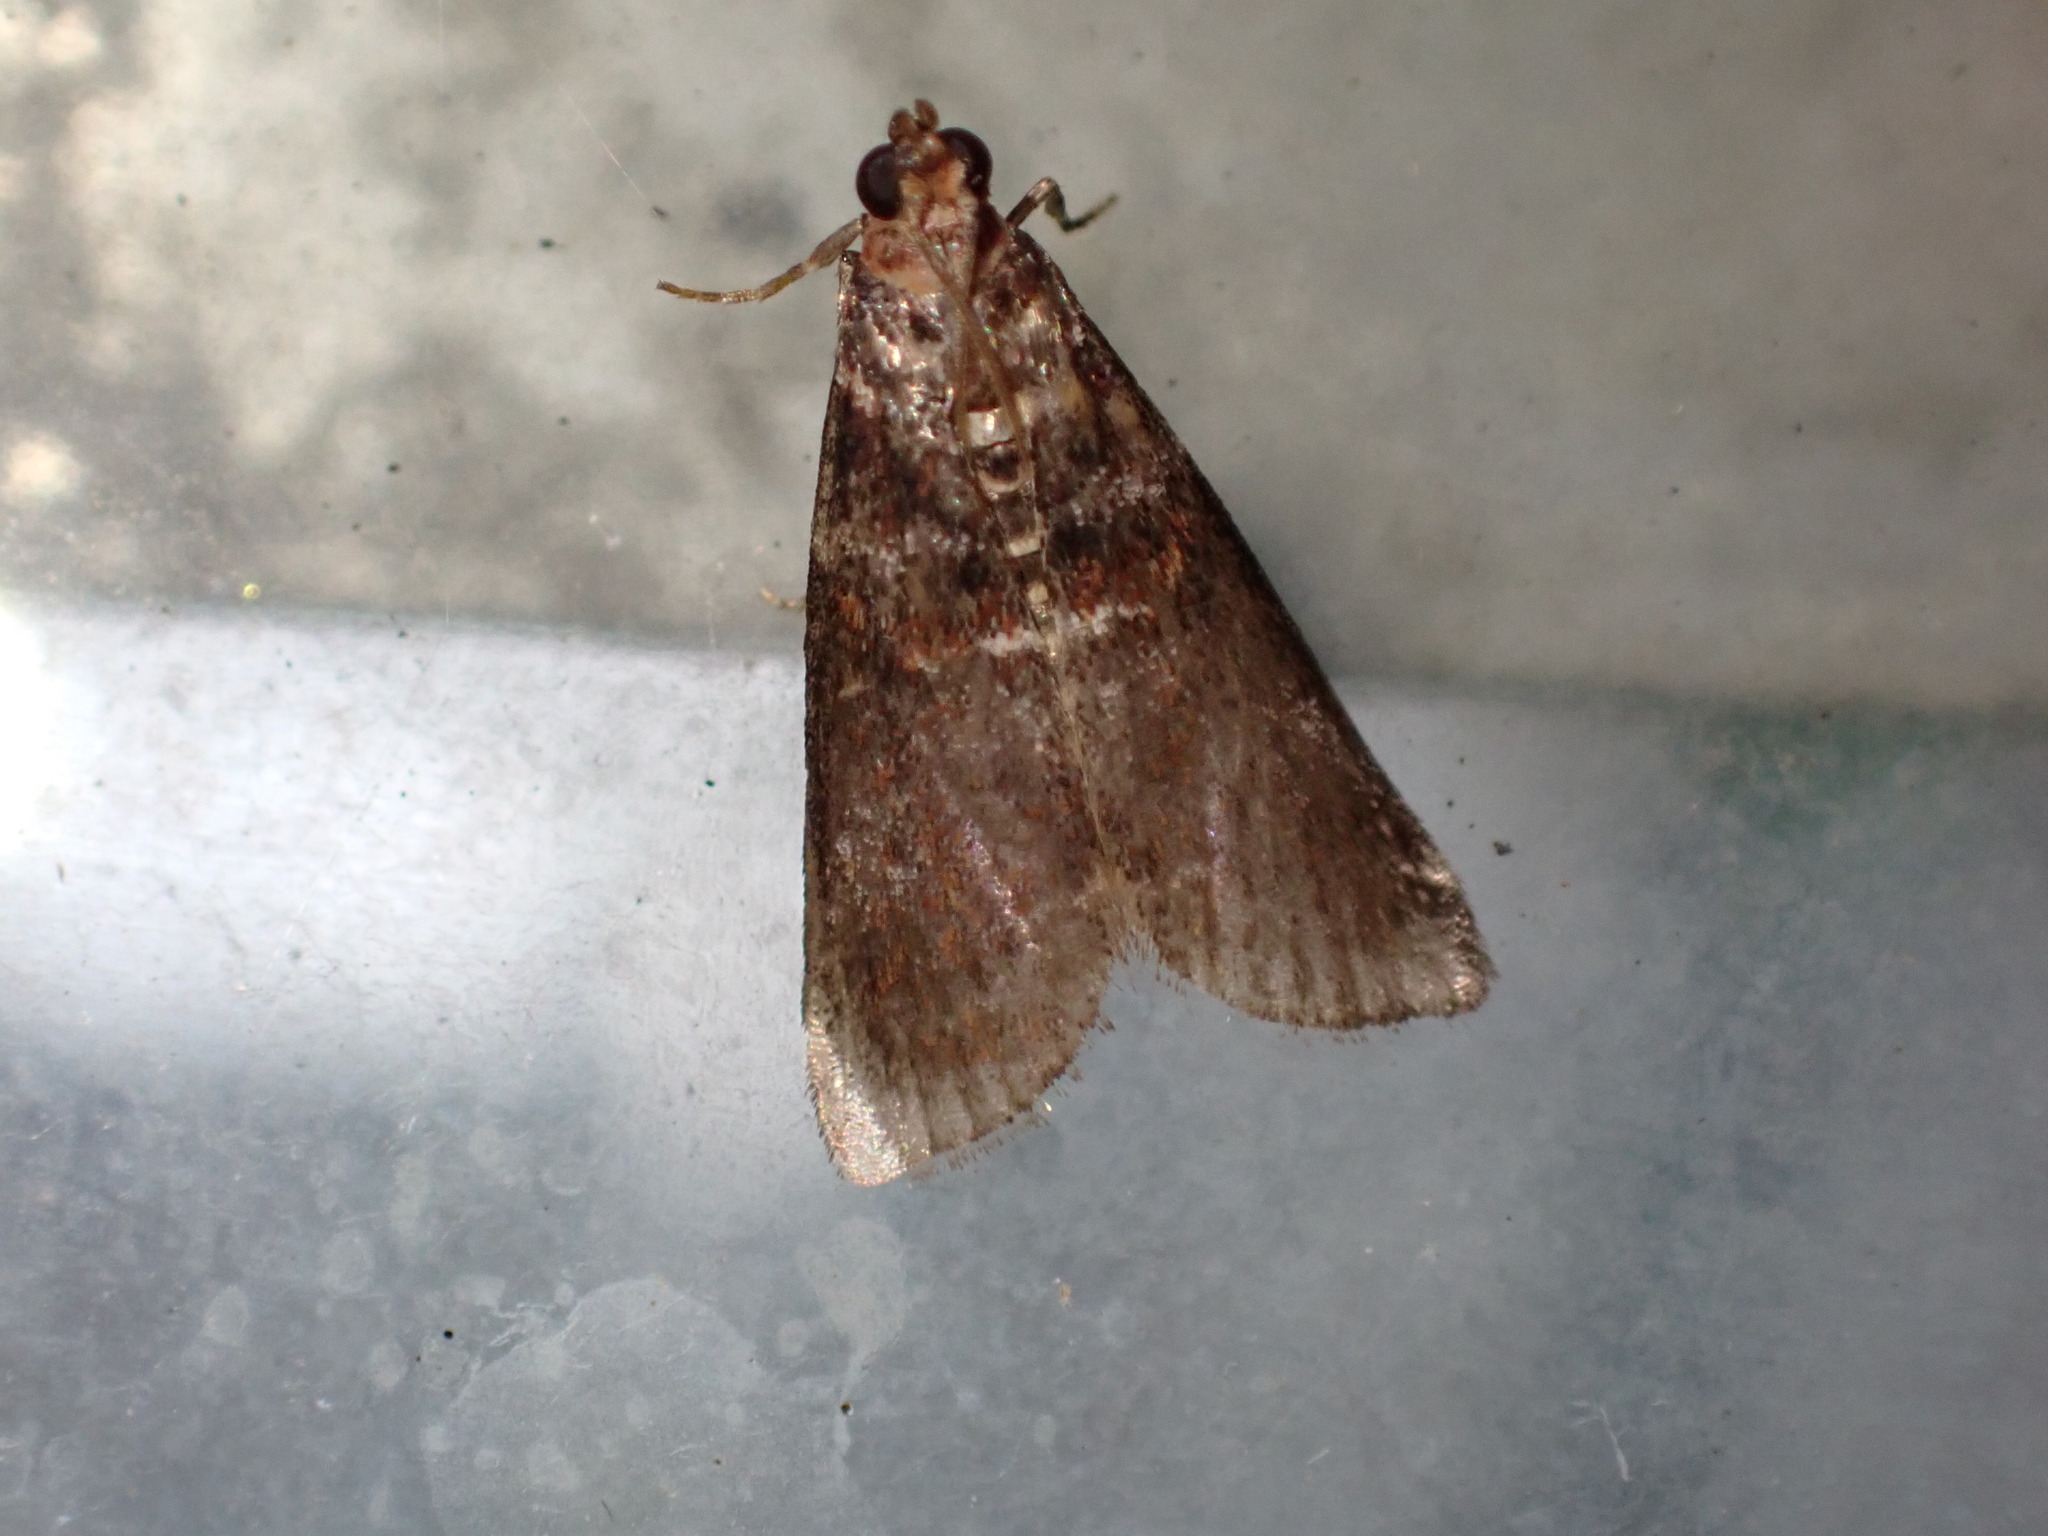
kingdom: Animalia
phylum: Arthropoda
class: Insecta
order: Lepidoptera
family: Pyralidae
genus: Acrobasis
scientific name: Acrobasis advenella
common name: Grey knot-horn
